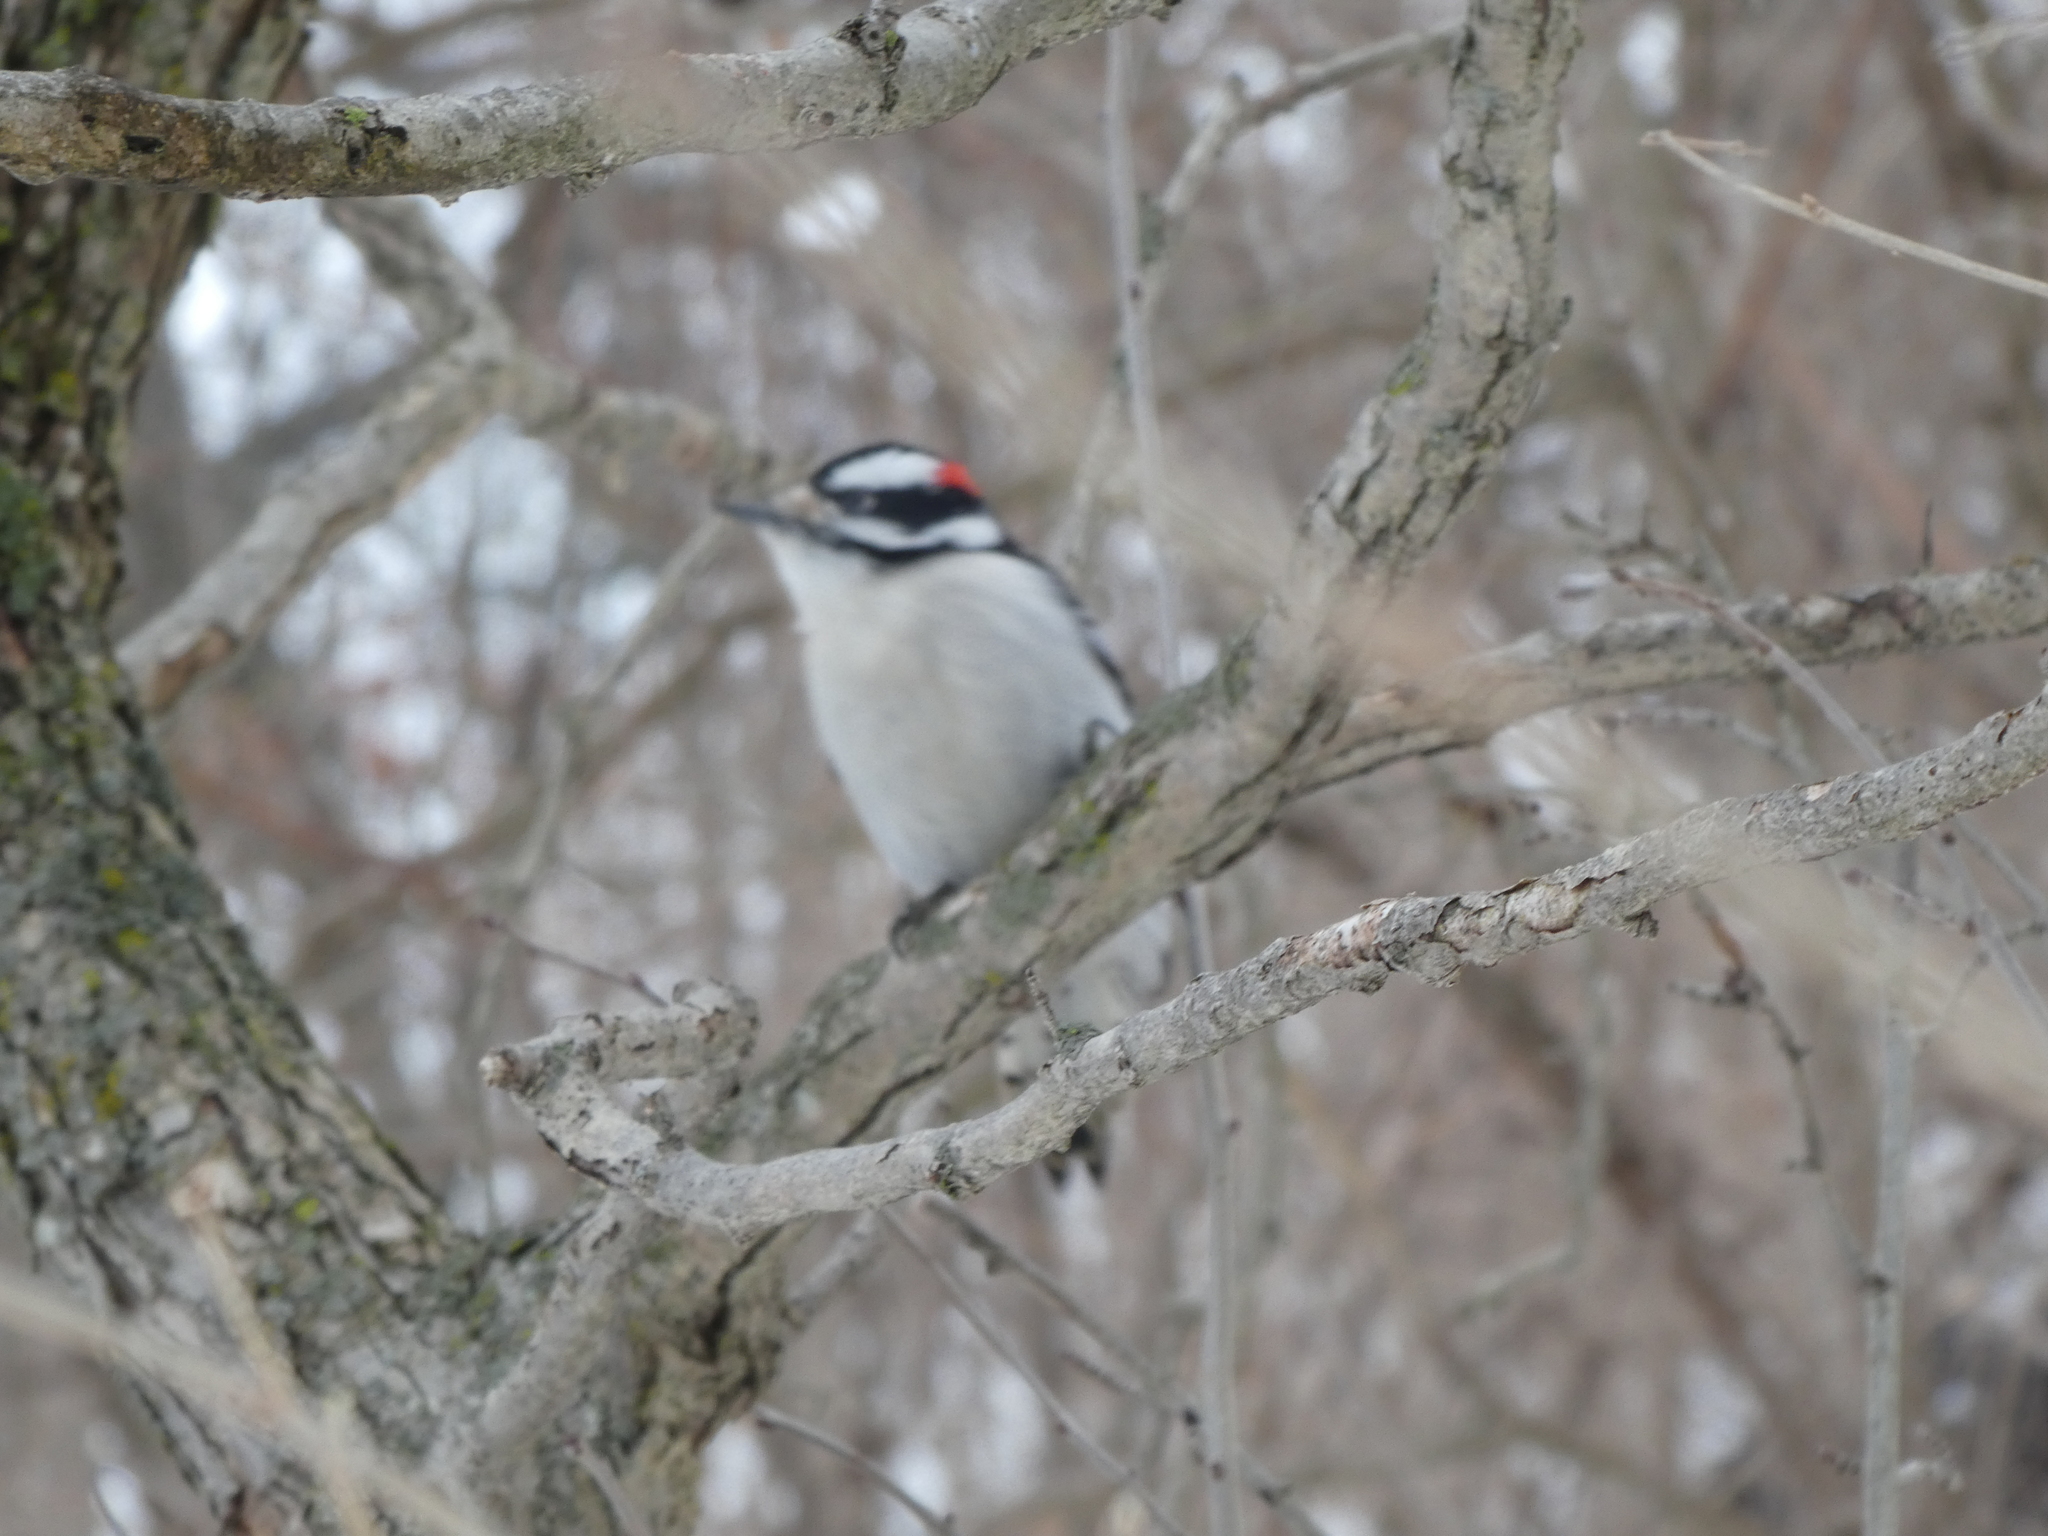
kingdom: Animalia
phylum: Chordata
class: Aves
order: Piciformes
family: Picidae
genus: Dryobates
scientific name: Dryobates pubescens
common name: Downy woodpecker
